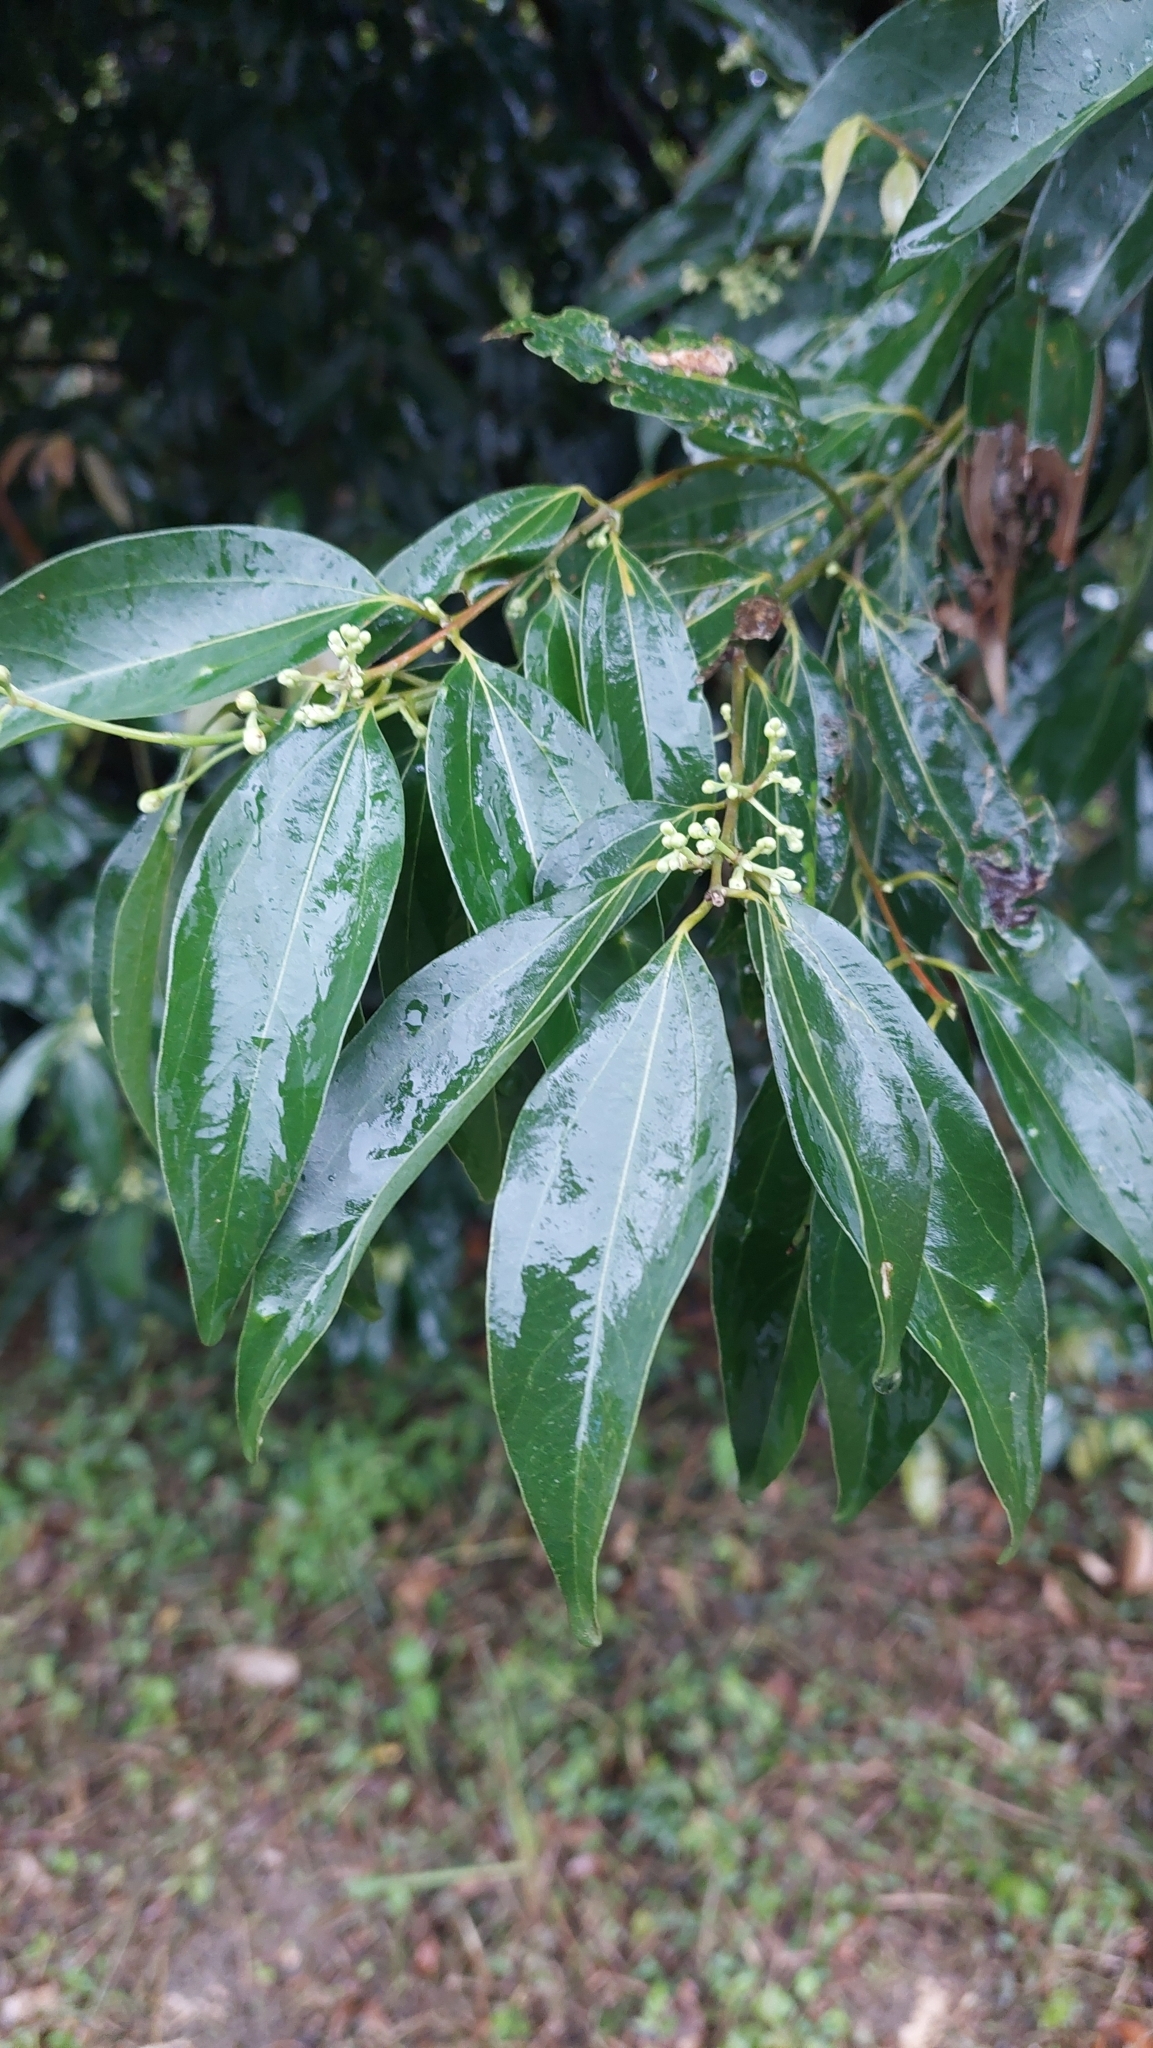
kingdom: Plantae
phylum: Tracheophyta
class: Magnoliopsida
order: Laurales
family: Lauraceae
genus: Cinnamomum
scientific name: Cinnamomum burmanni
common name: Padang cassia
